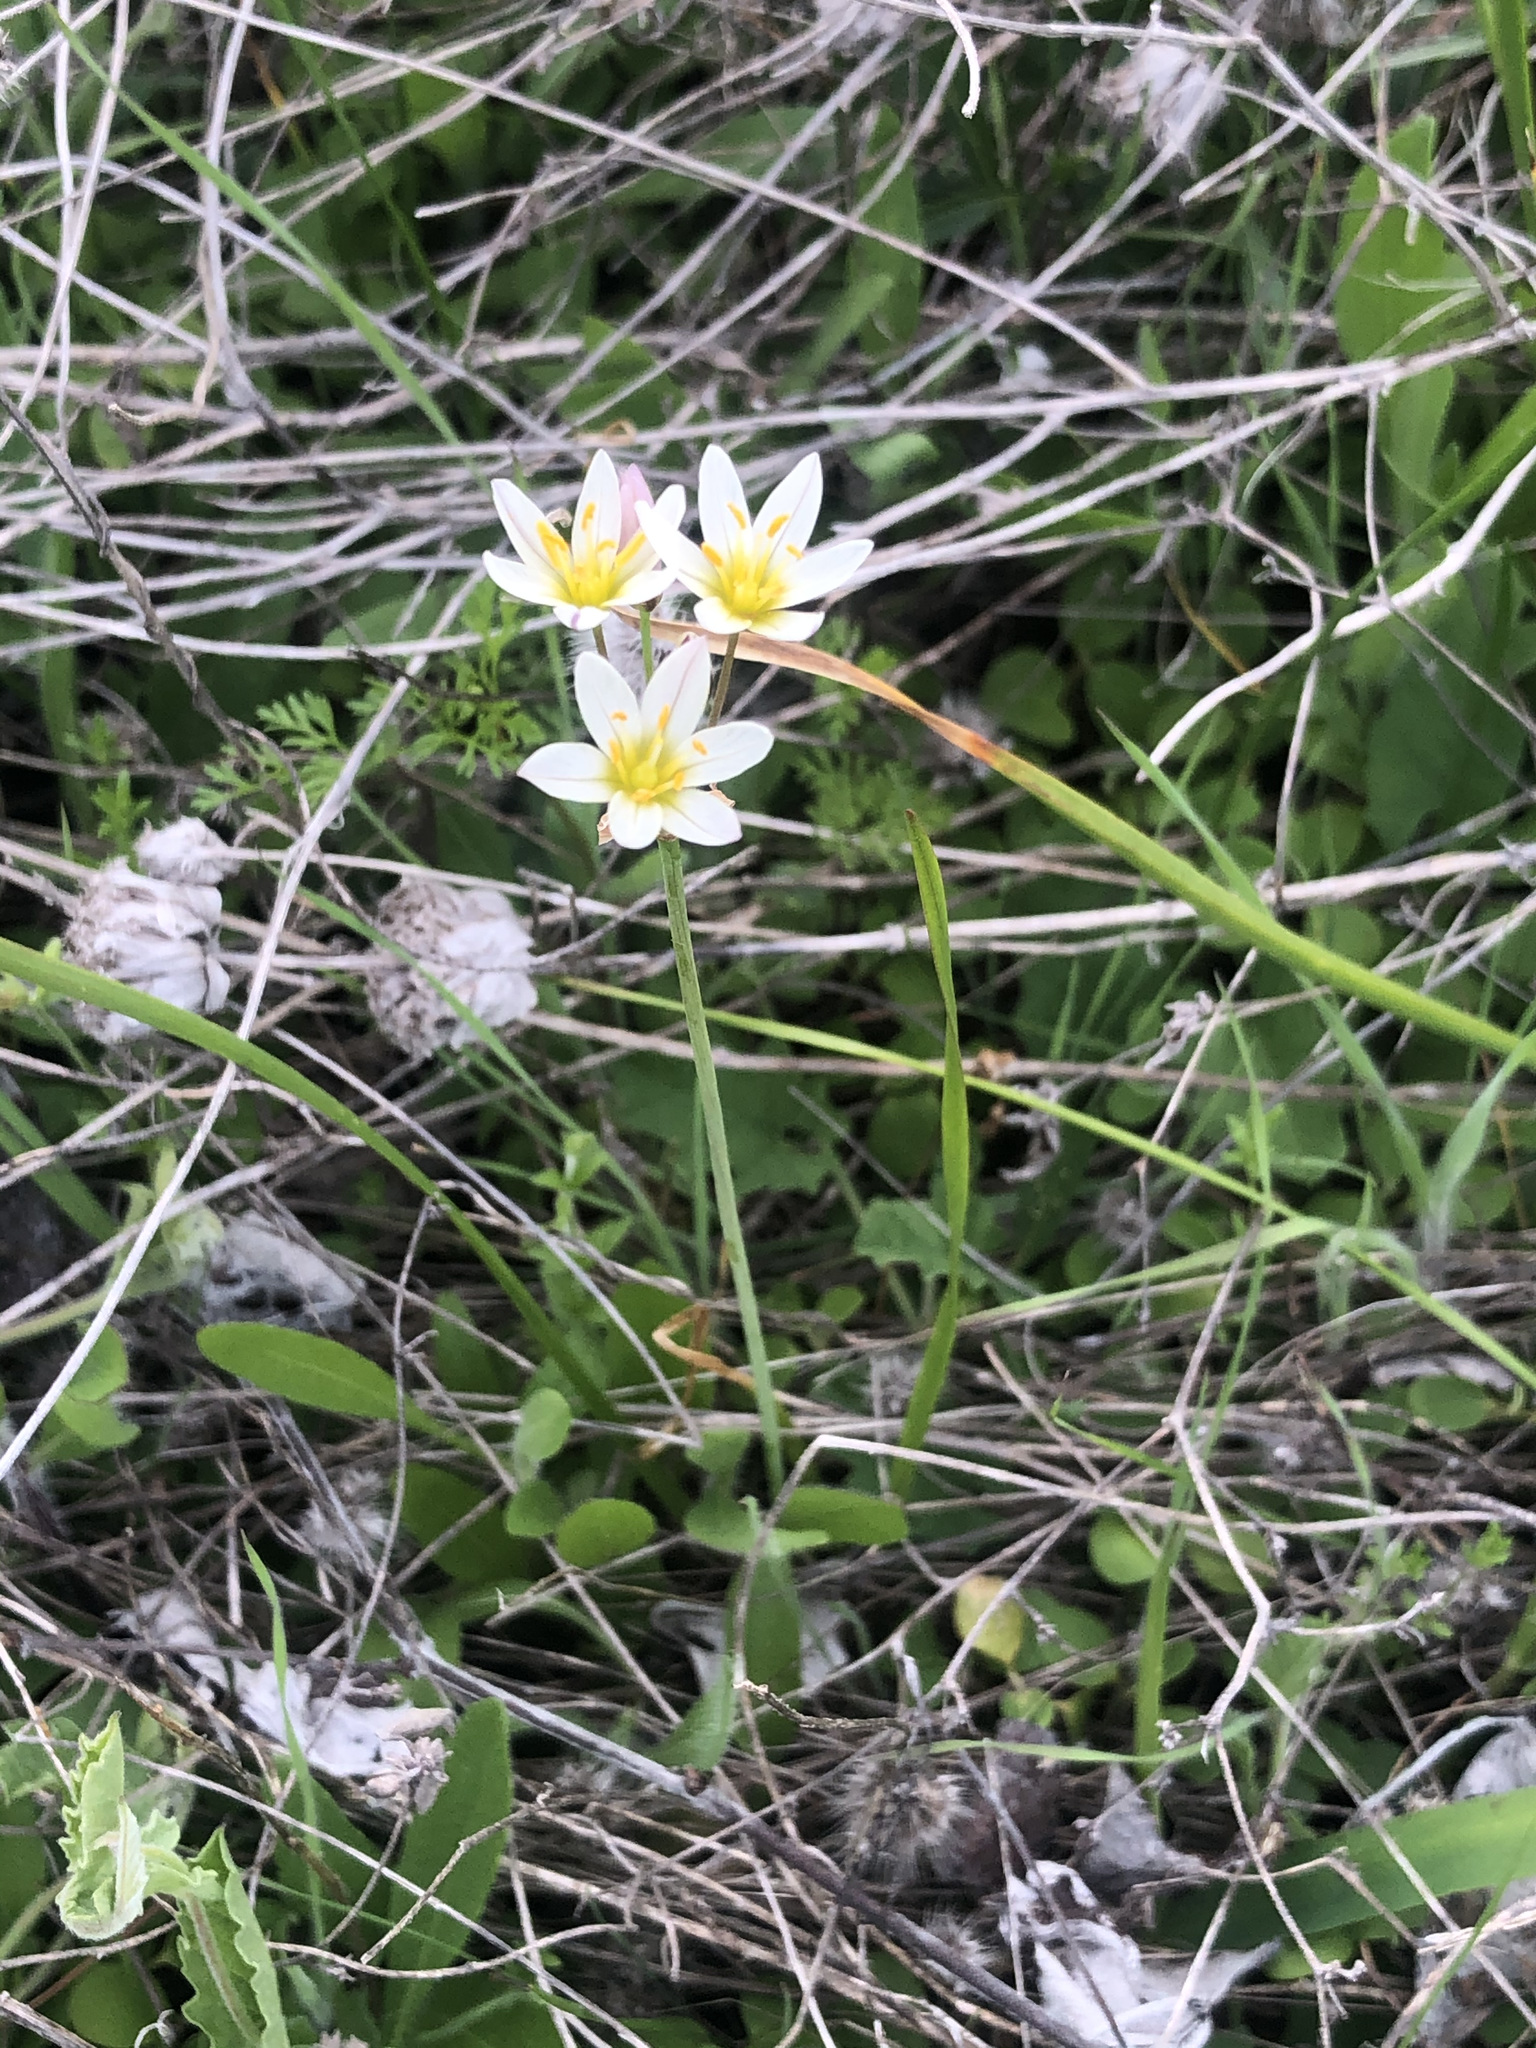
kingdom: Plantae
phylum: Tracheophyta
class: Liliopsida
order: Asparagales
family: Amaryllidaceae
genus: Nothoscordum
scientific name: Nothoscordum bivalve
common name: Crow-poison
